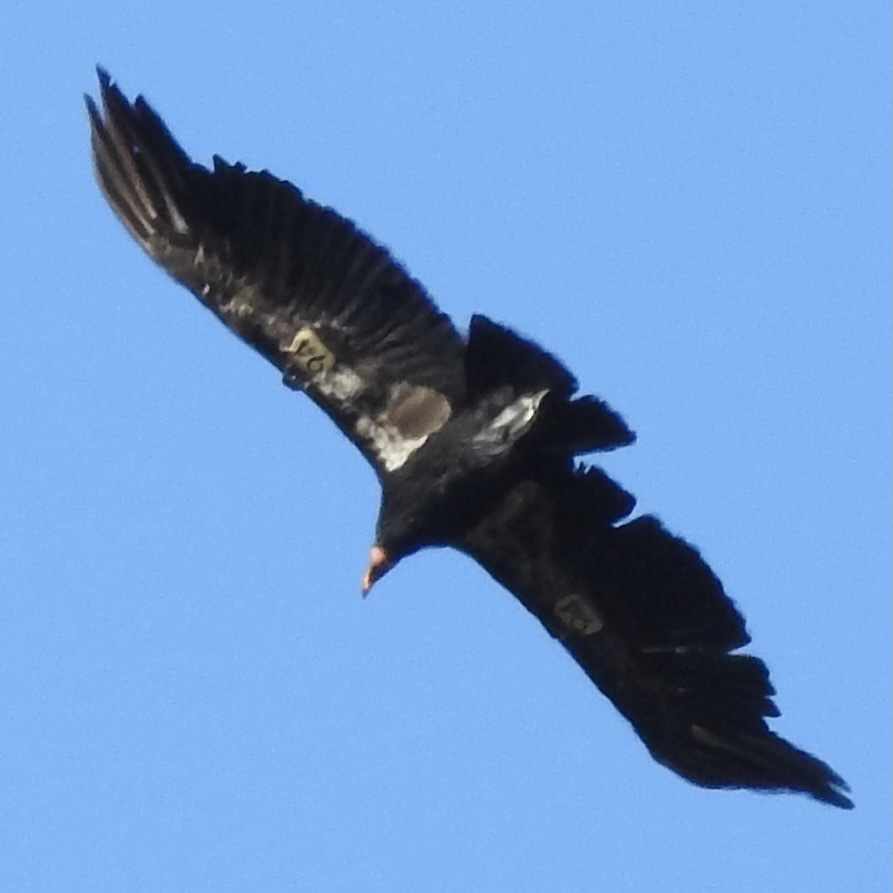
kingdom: Animalia
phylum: Chordata
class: Aves
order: Accipitriformes
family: Cathartidae
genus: Gymnogyps
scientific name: Gymnogyps californianus
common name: California condor
